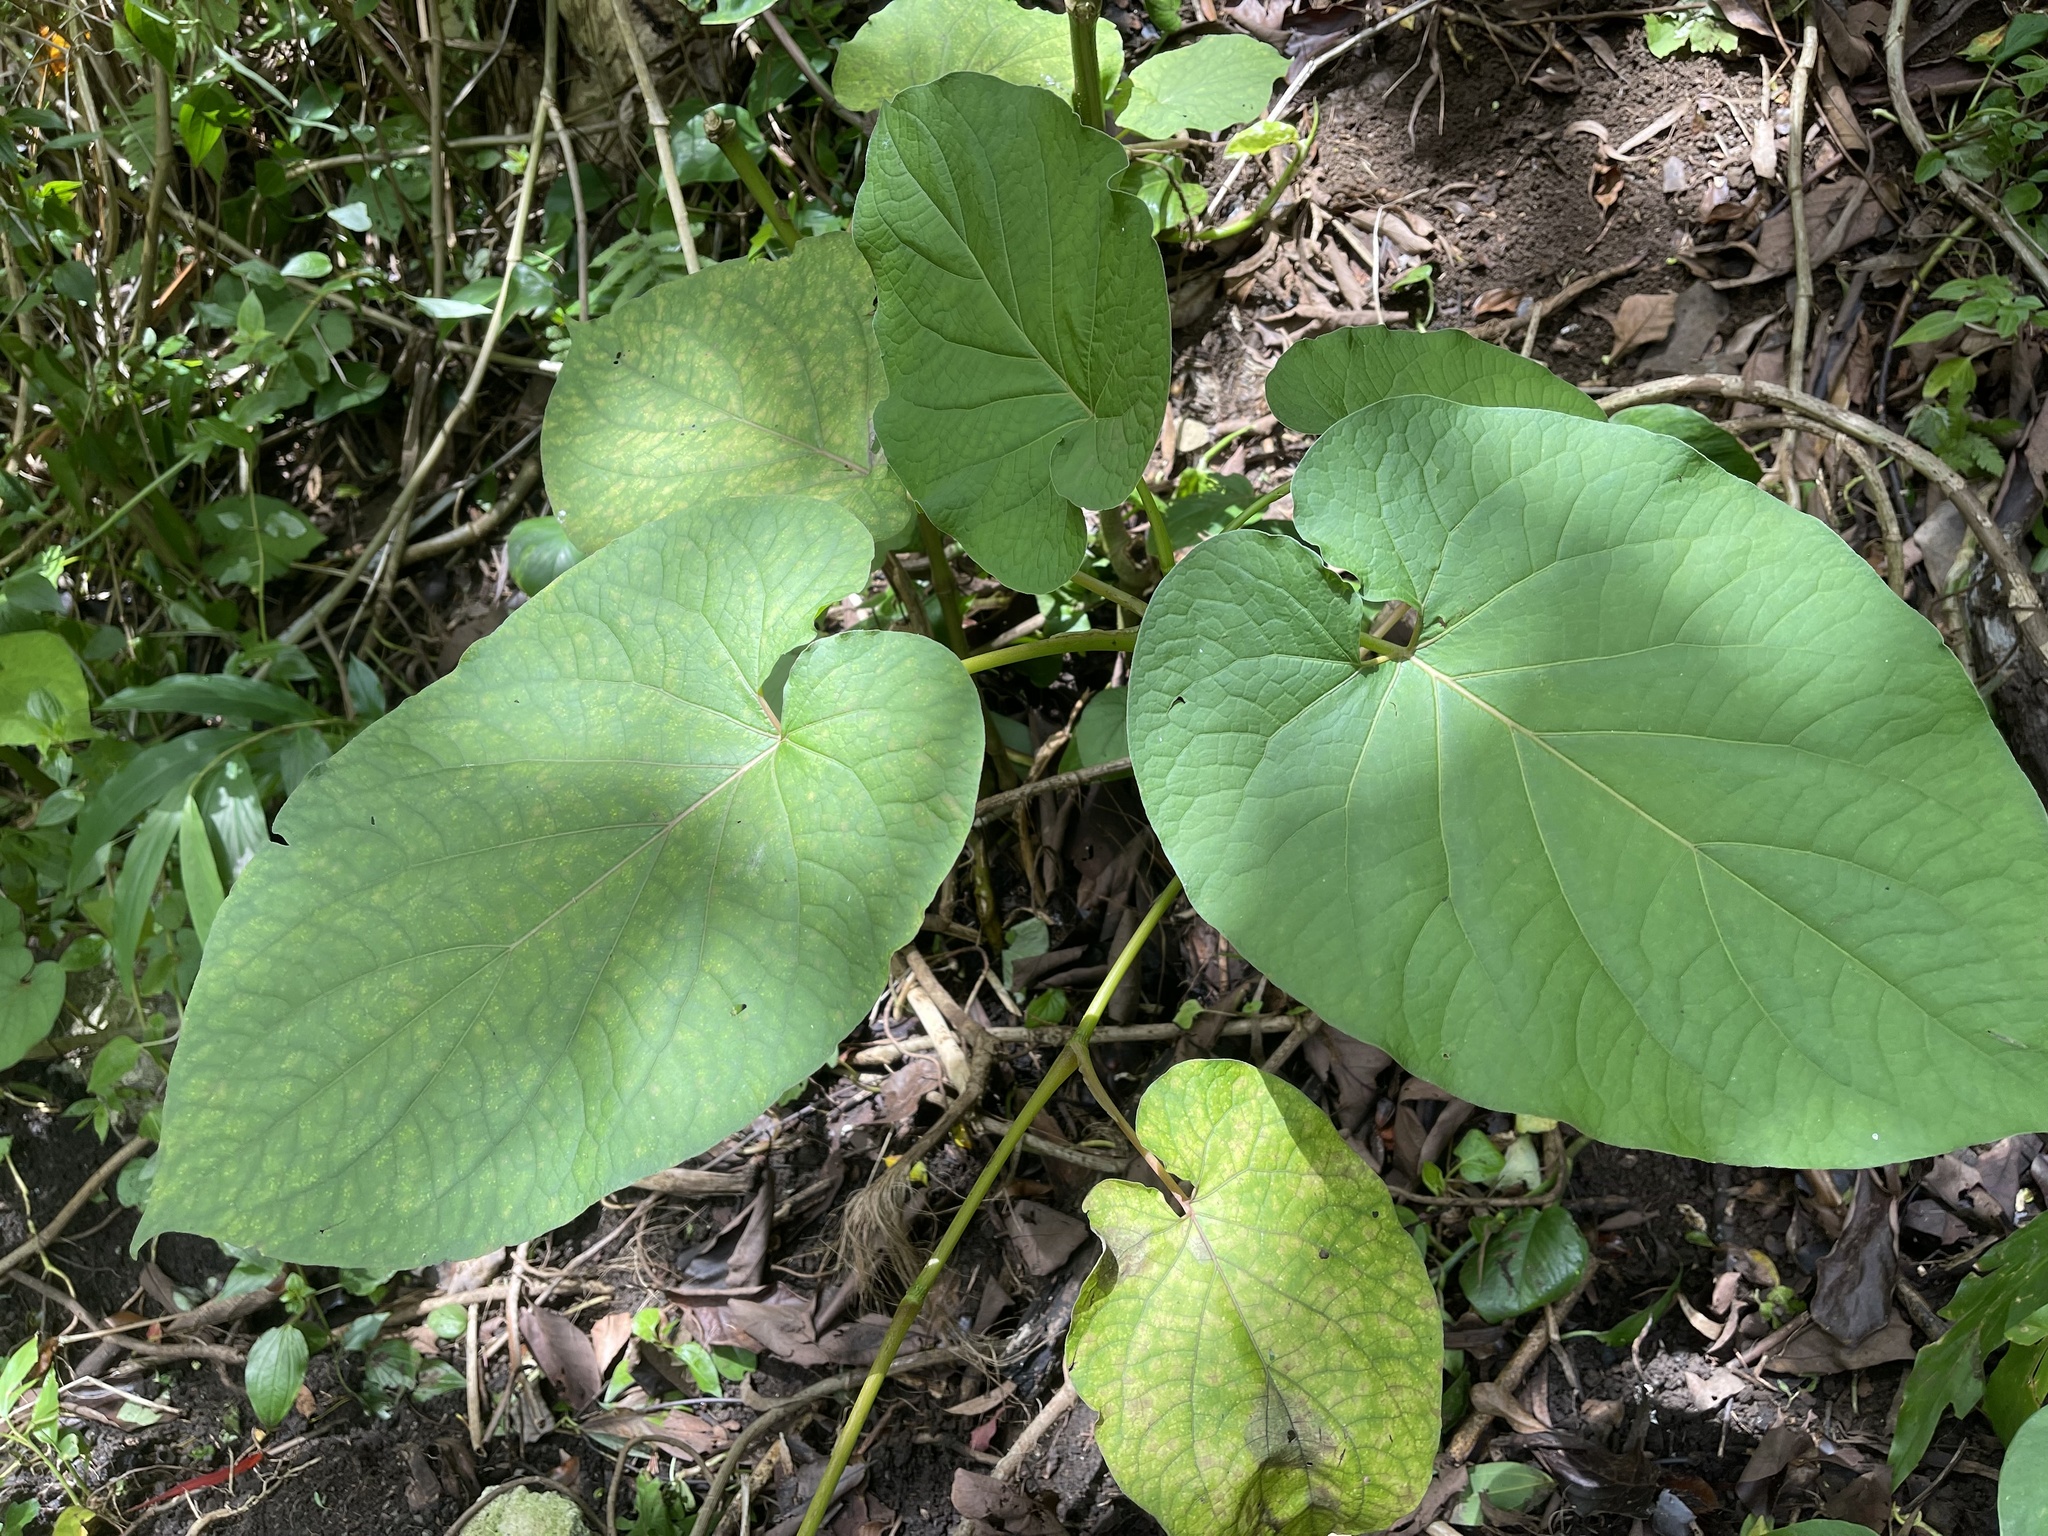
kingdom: Plantae
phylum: Tracheophyta
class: Magnoliopsida
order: Piperales
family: Piperaceae
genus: Piper
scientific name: Piper auritum
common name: Vera cruz pepper
